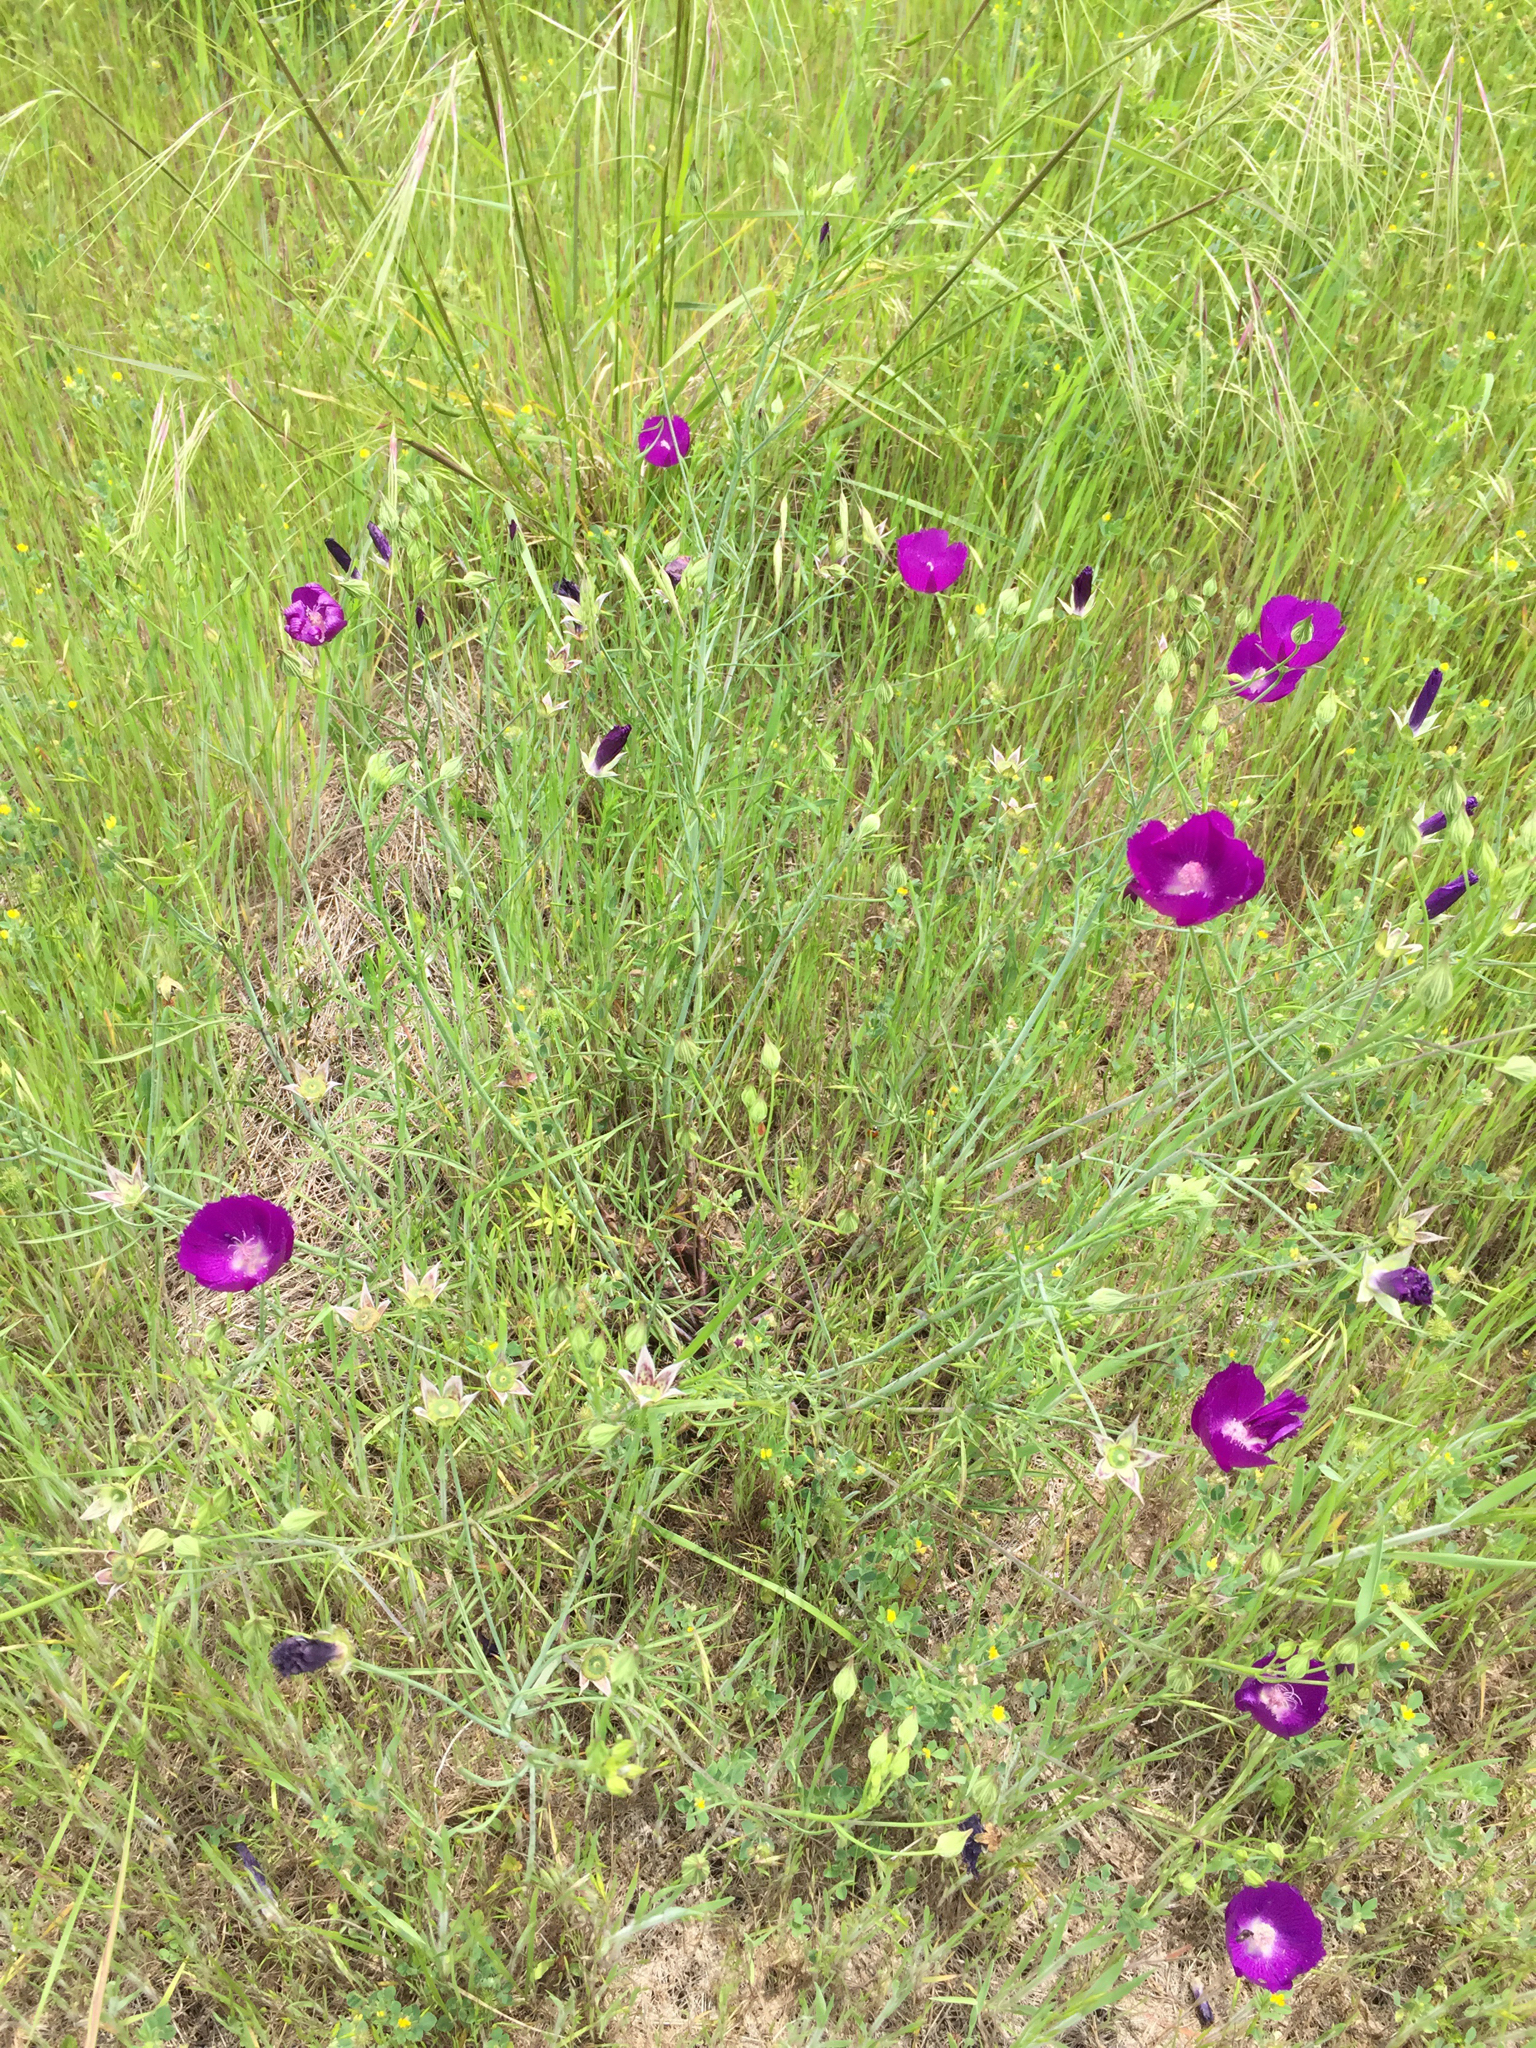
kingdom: Plantae
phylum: Tracheophyta
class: Magnoliopsida
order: Malvales
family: Malvaceae
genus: Callirhoe
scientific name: Callirhoe pedata
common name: Finger poppy-mallow
